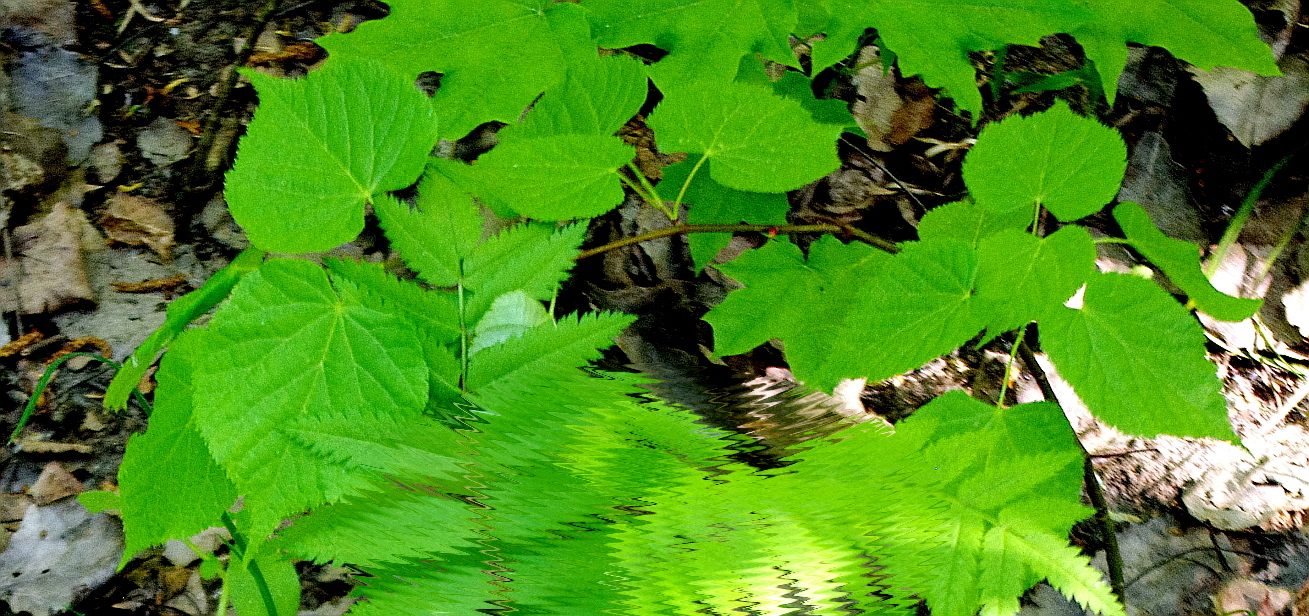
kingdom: Plantae
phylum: Tracheophyta
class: Magnoliopsida
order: Malvales
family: Malvaceae
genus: Tilia
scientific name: Tilia cordata
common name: Small-leaved lime
